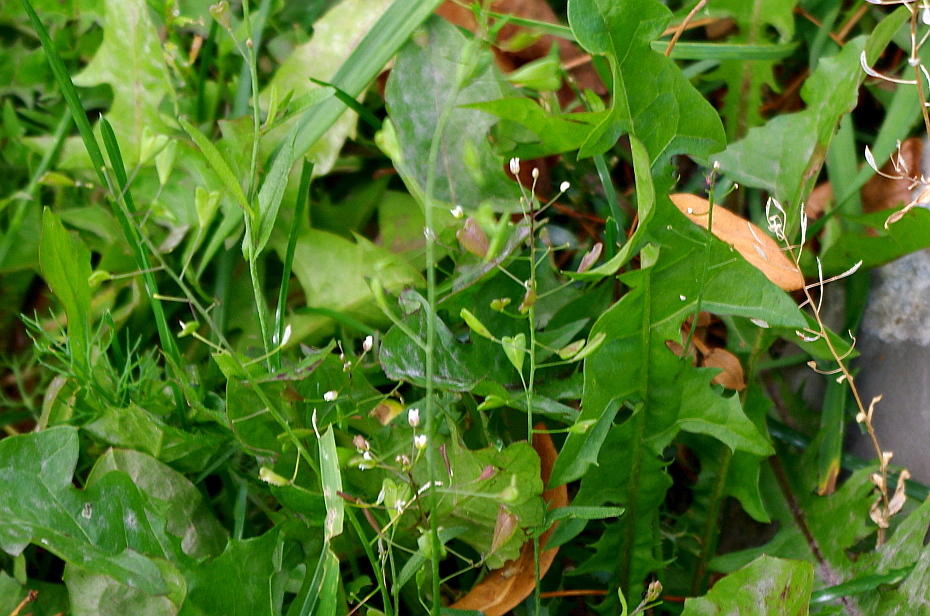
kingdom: Plantae
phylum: Tracheophyta
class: Magnoliopsida
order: Brassicales
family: Brassicaceae
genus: Capsella
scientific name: Capsella bursa-pastoris
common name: Shepherd's purse
